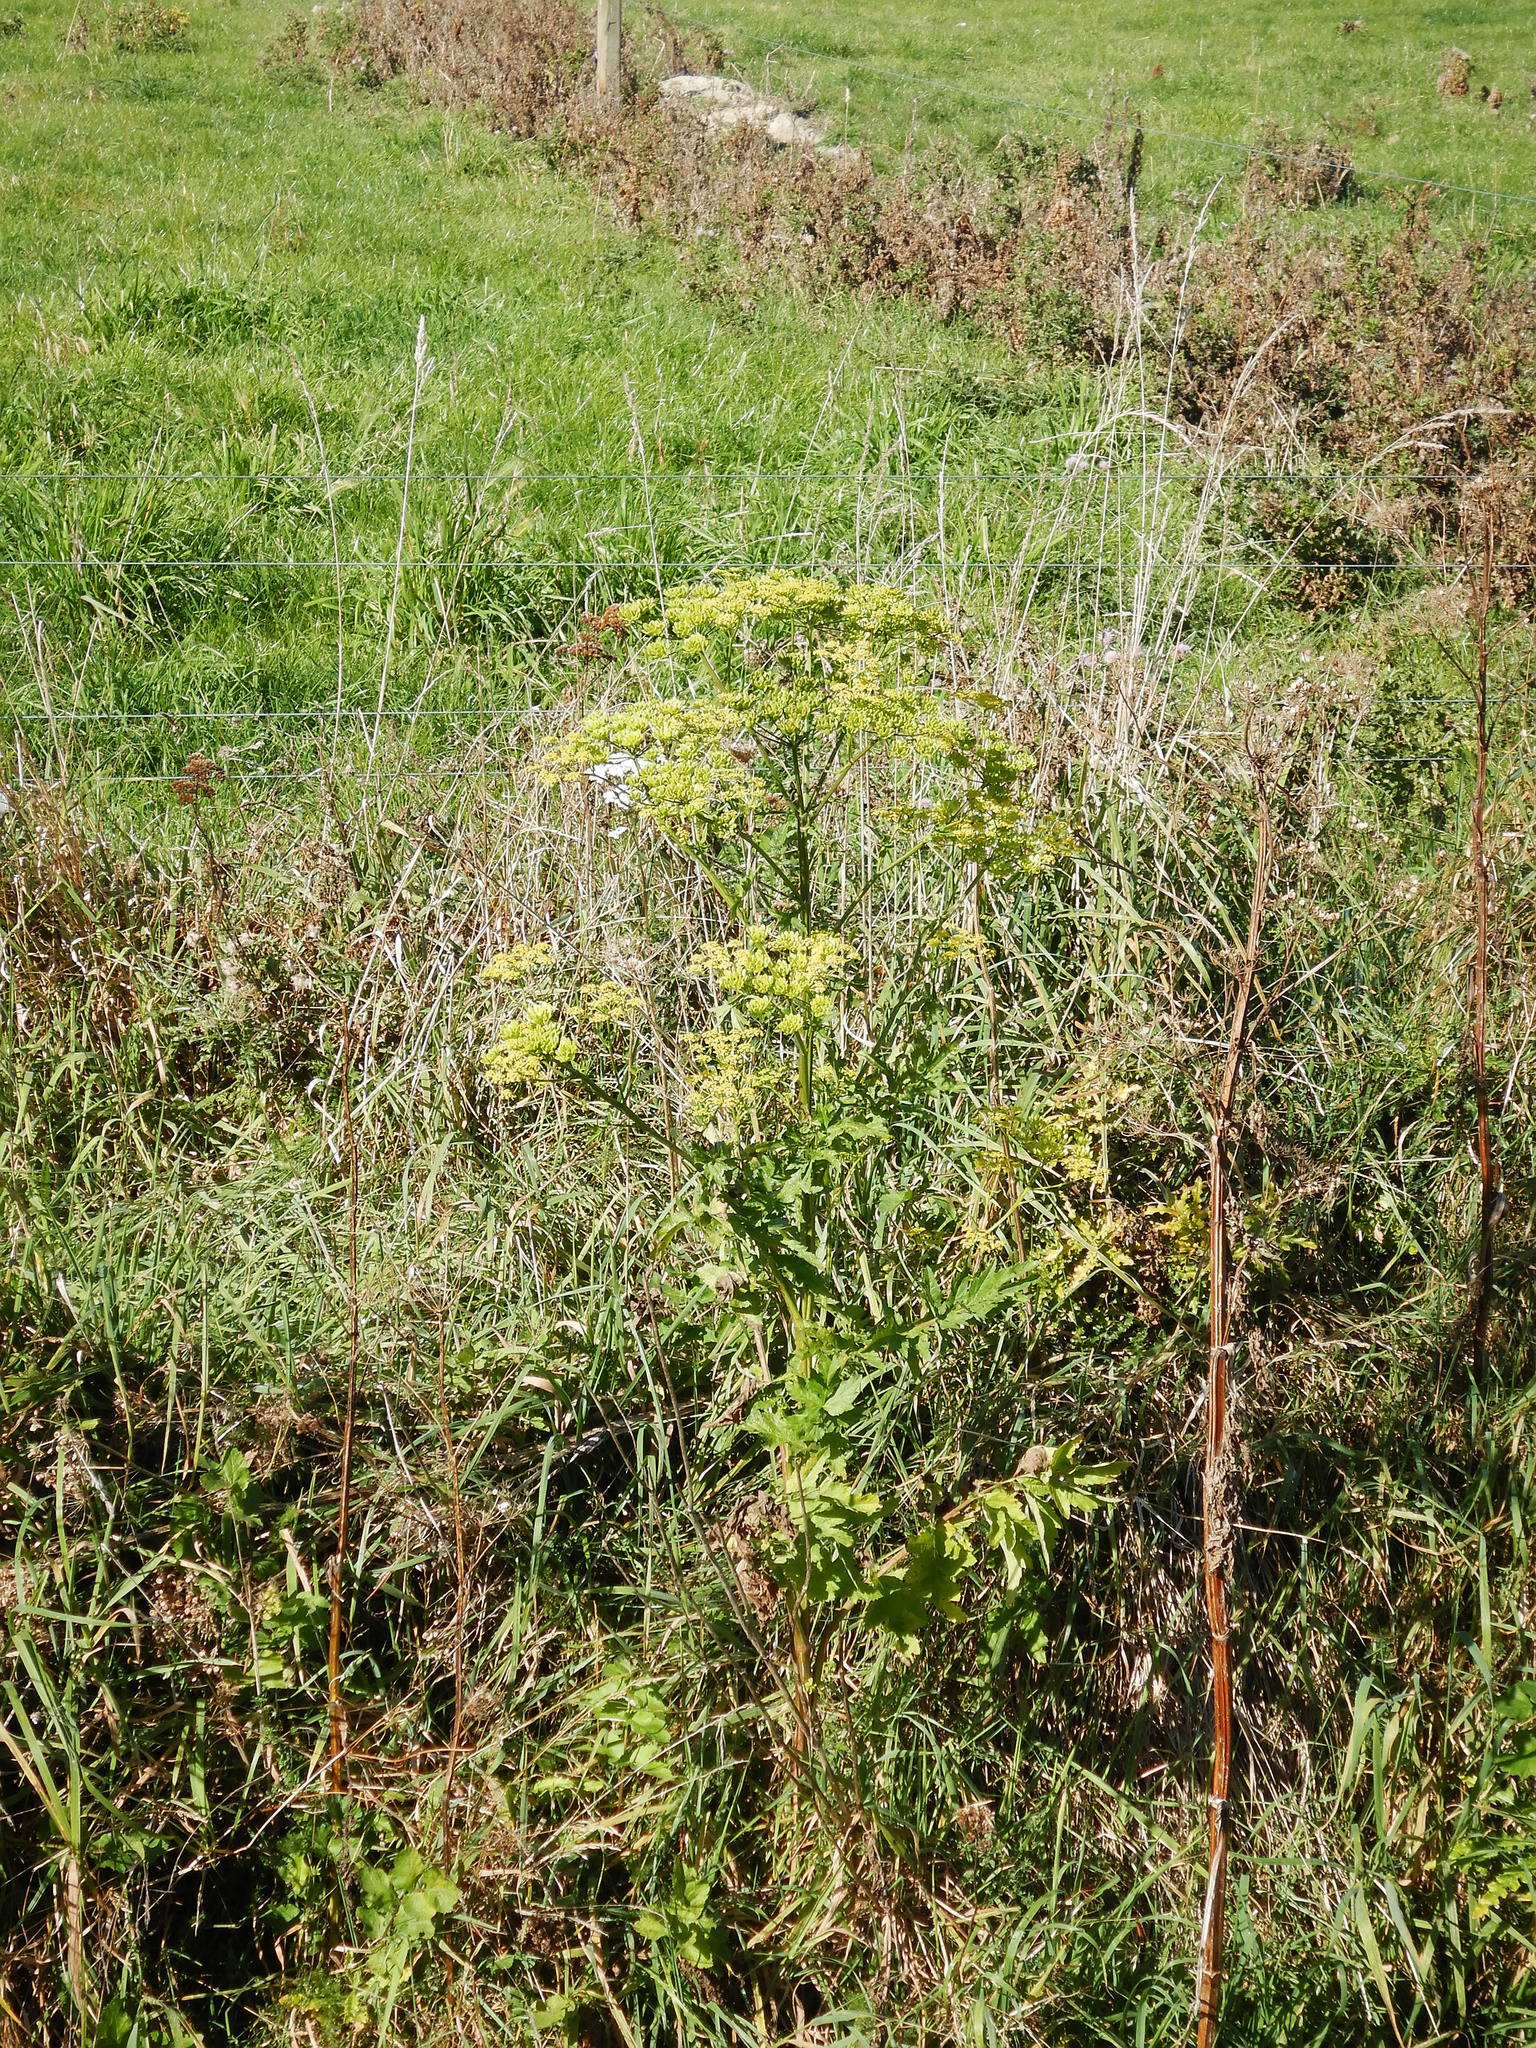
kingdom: Plantae
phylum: Tracheophyta
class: Magnoliopsida
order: Apiales
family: Apiaceae
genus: Pastinaca
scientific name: Pastinaca sativa
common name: Wild parsnip
